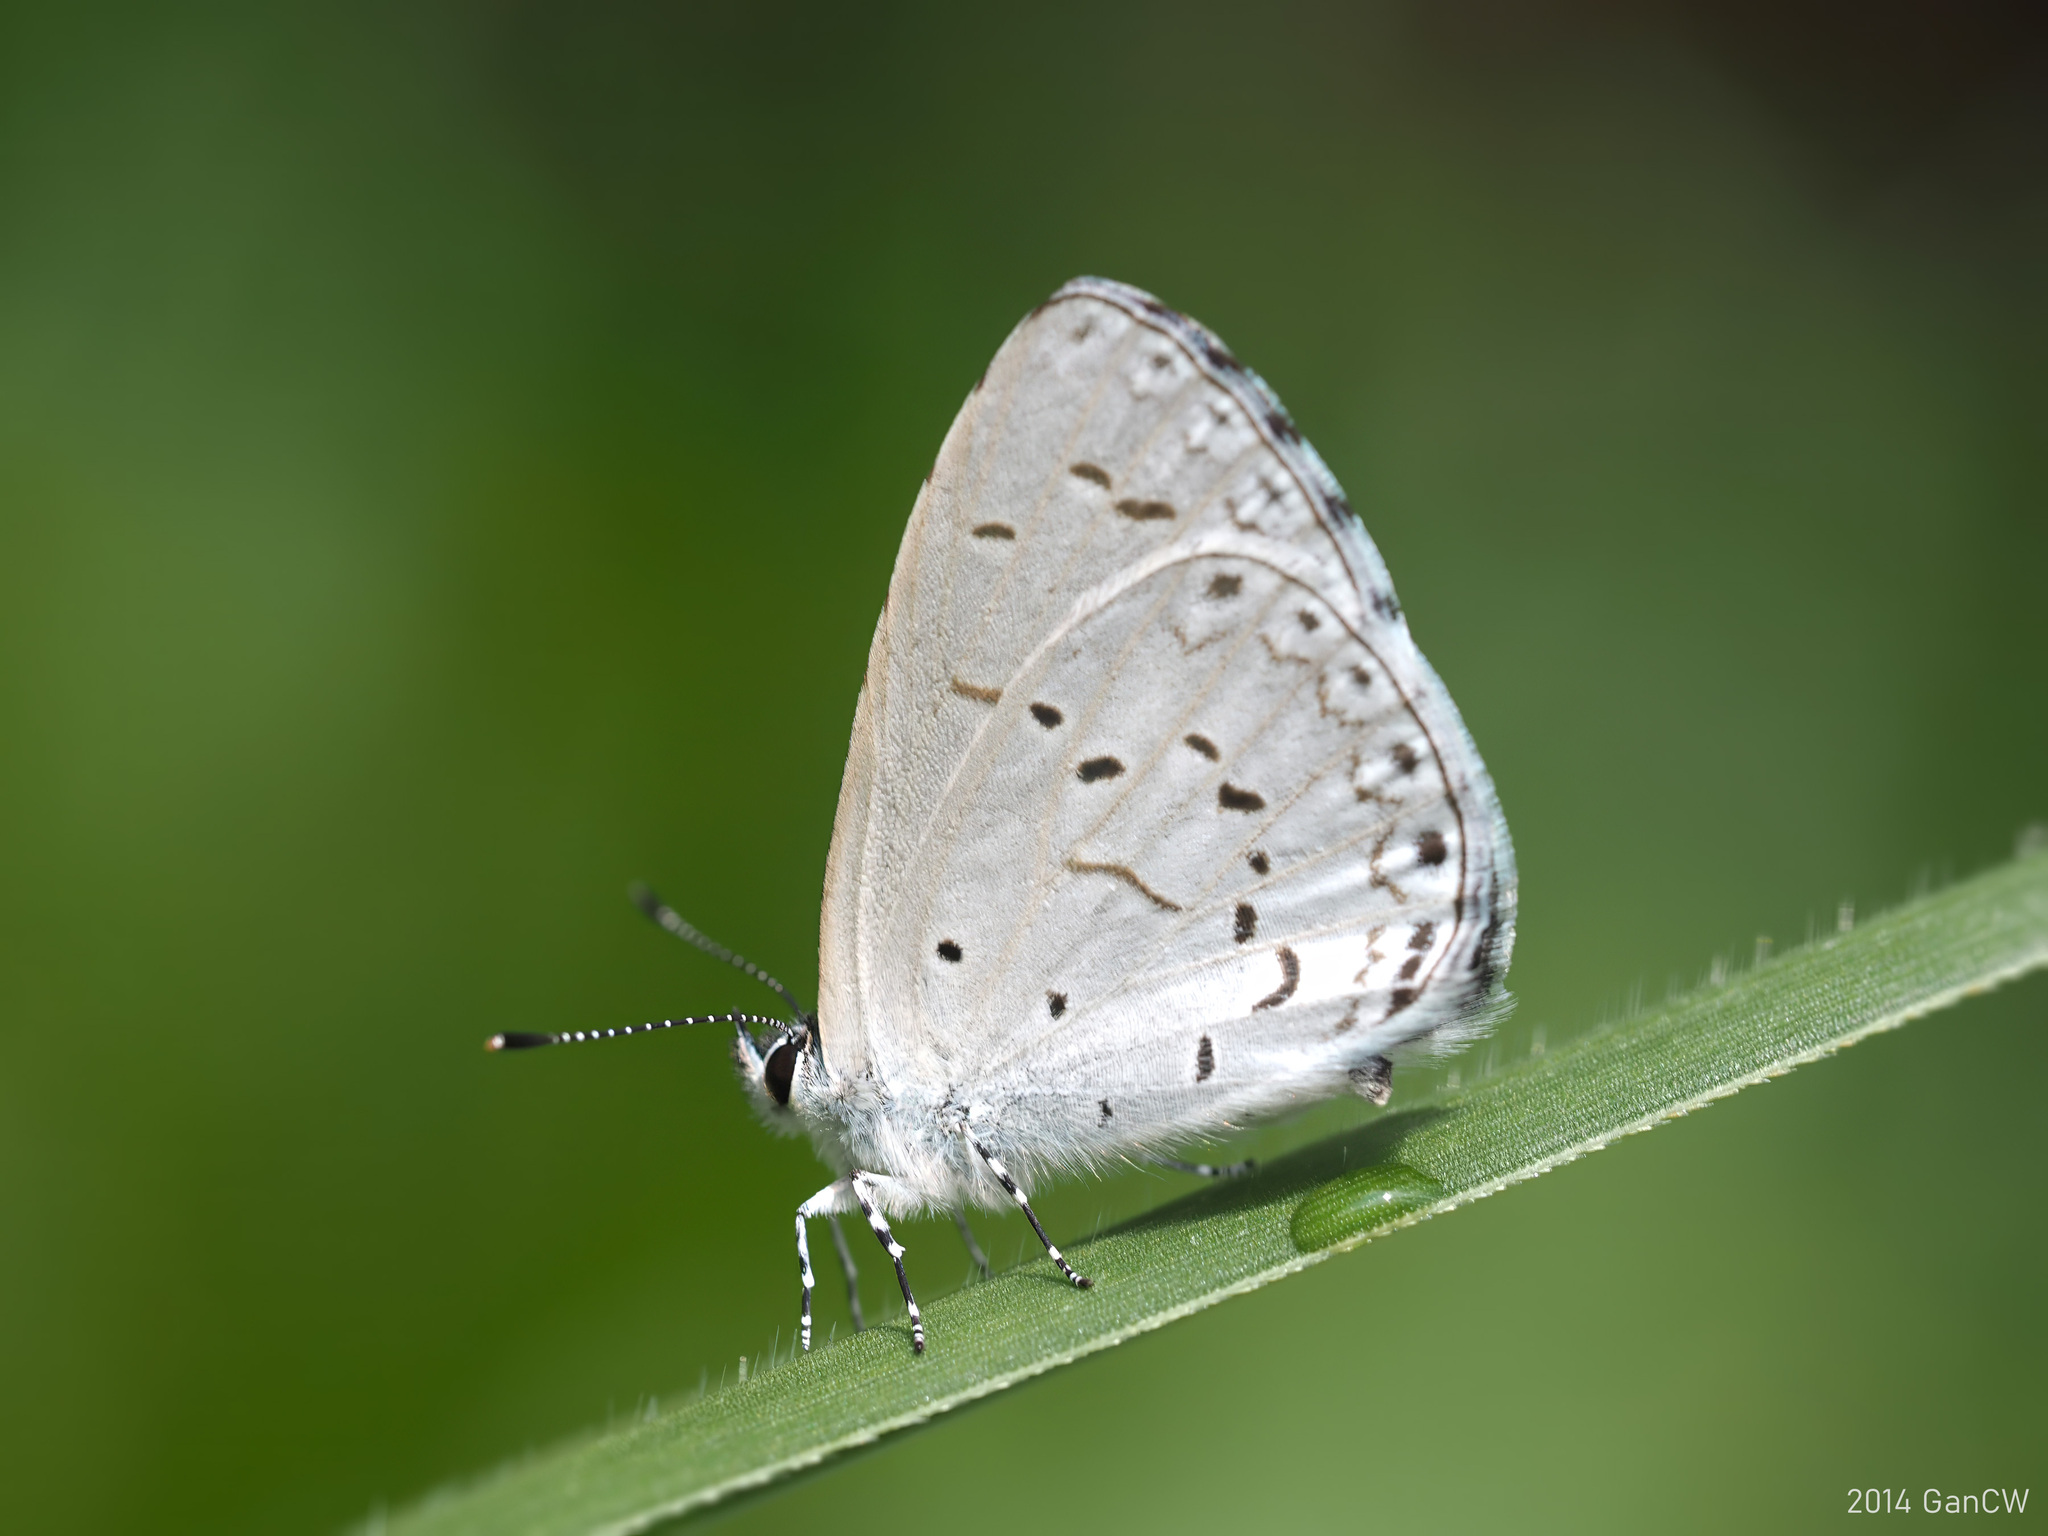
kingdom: Animalia
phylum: Arthropoda
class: Insecta
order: Lepidoptera
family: Lycaenidae
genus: Udara
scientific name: Udara
